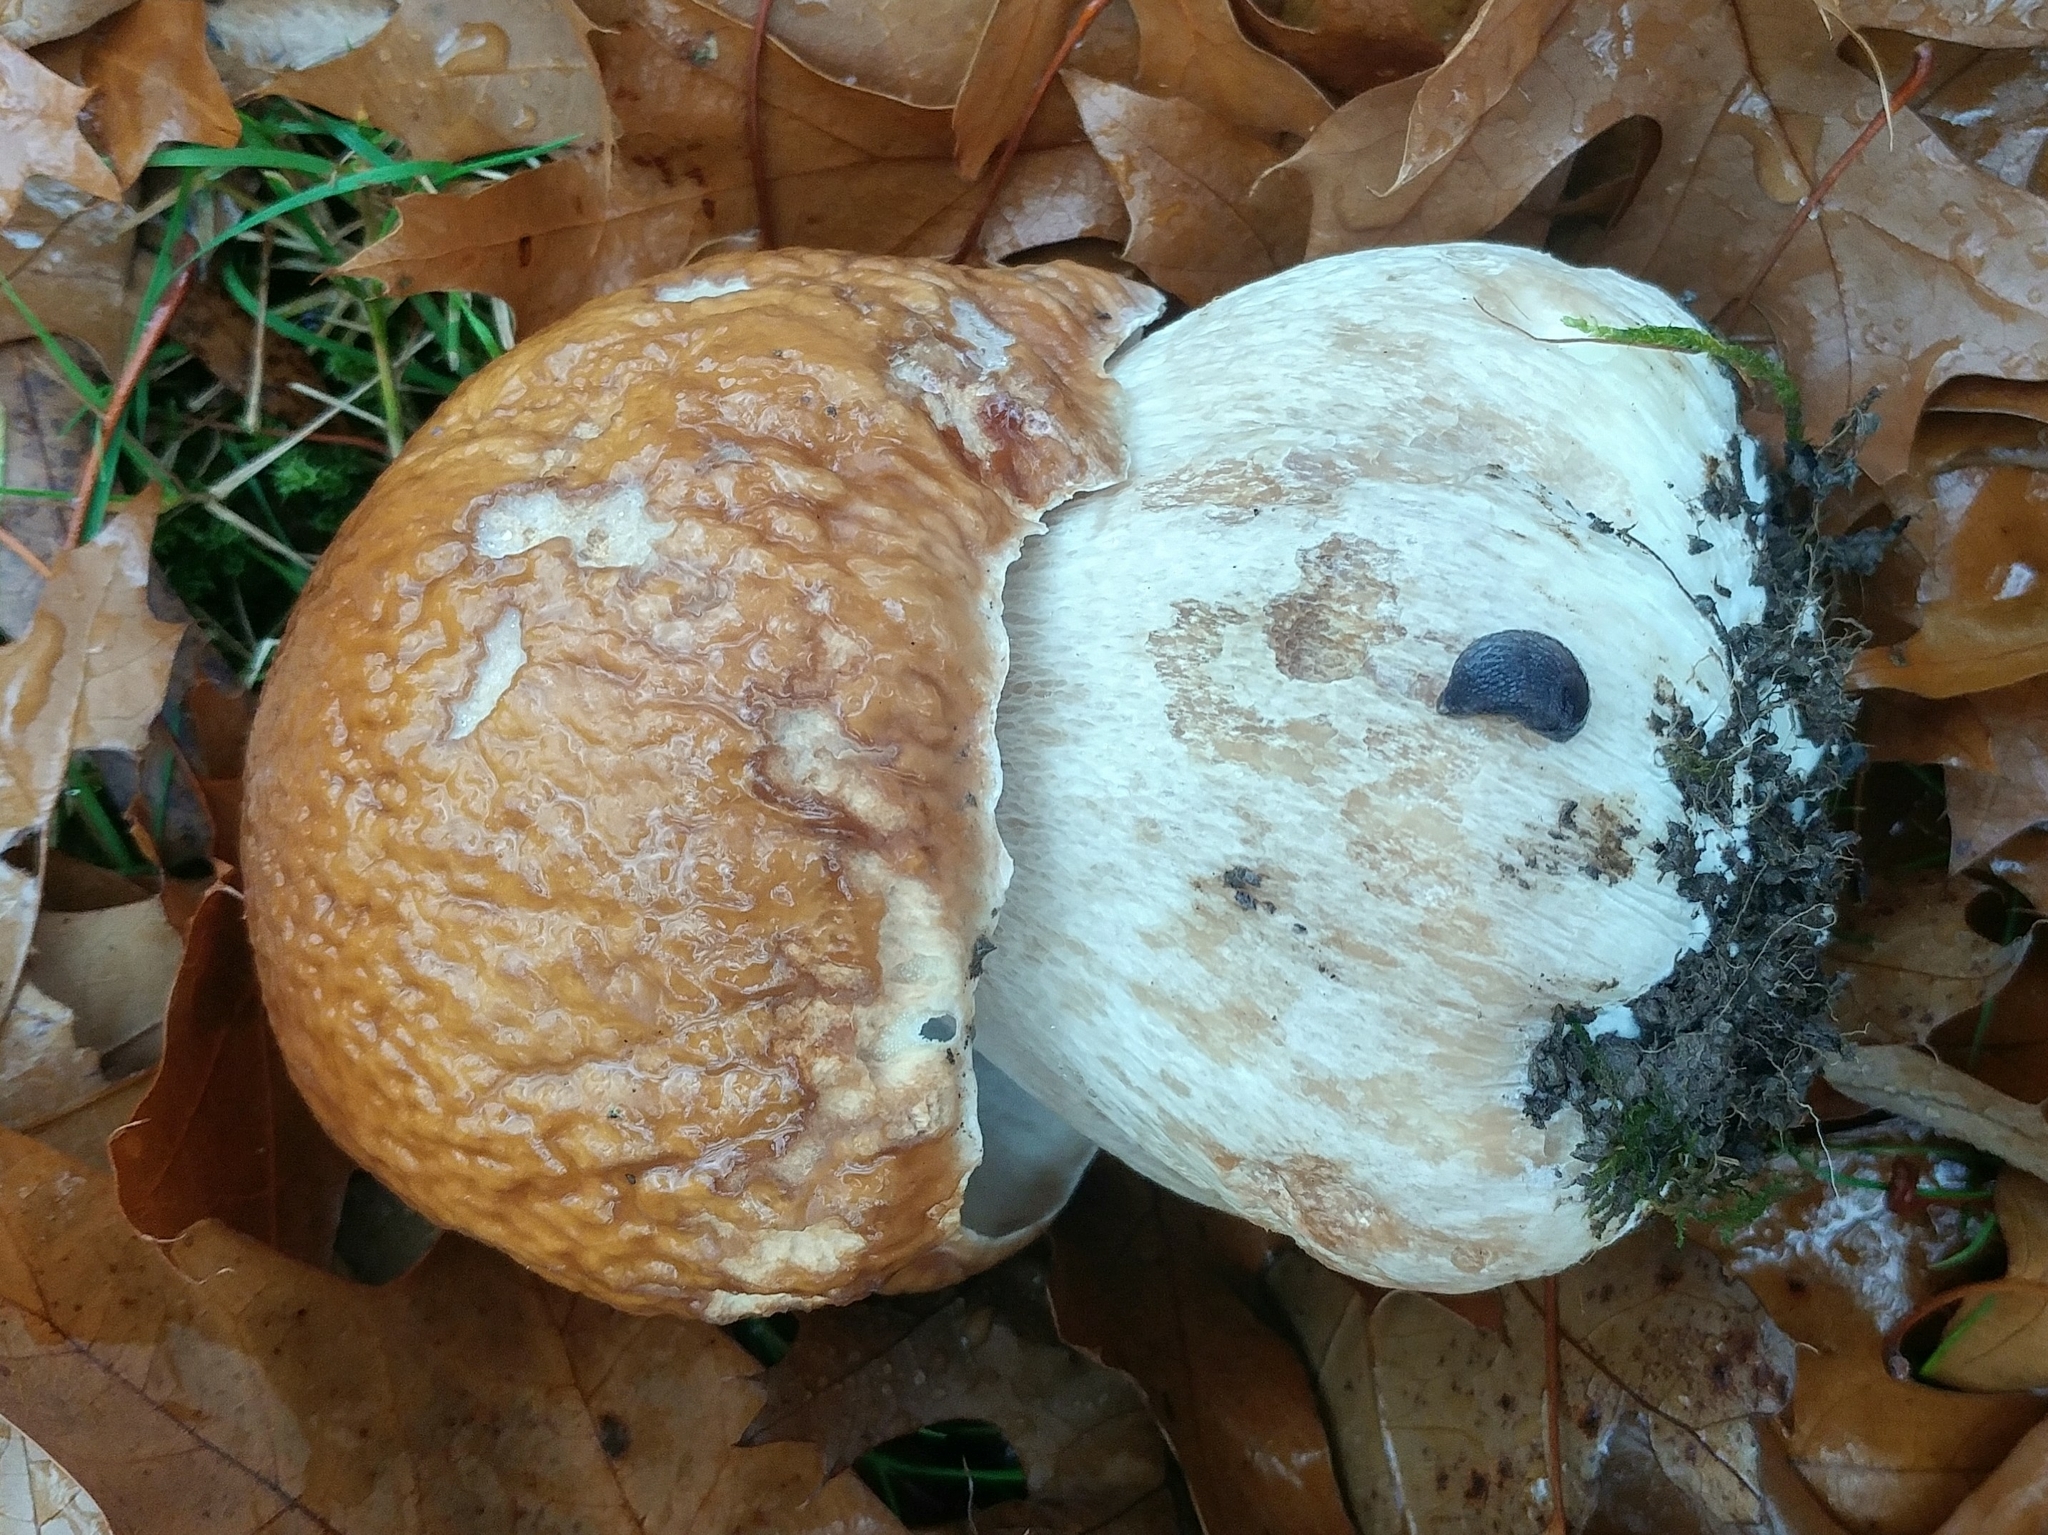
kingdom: Fungi
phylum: Basidiomycota
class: Agaricomycetes
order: Boletales
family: Boletaceae
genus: Boletus
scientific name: Boletus edulis
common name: Cep
